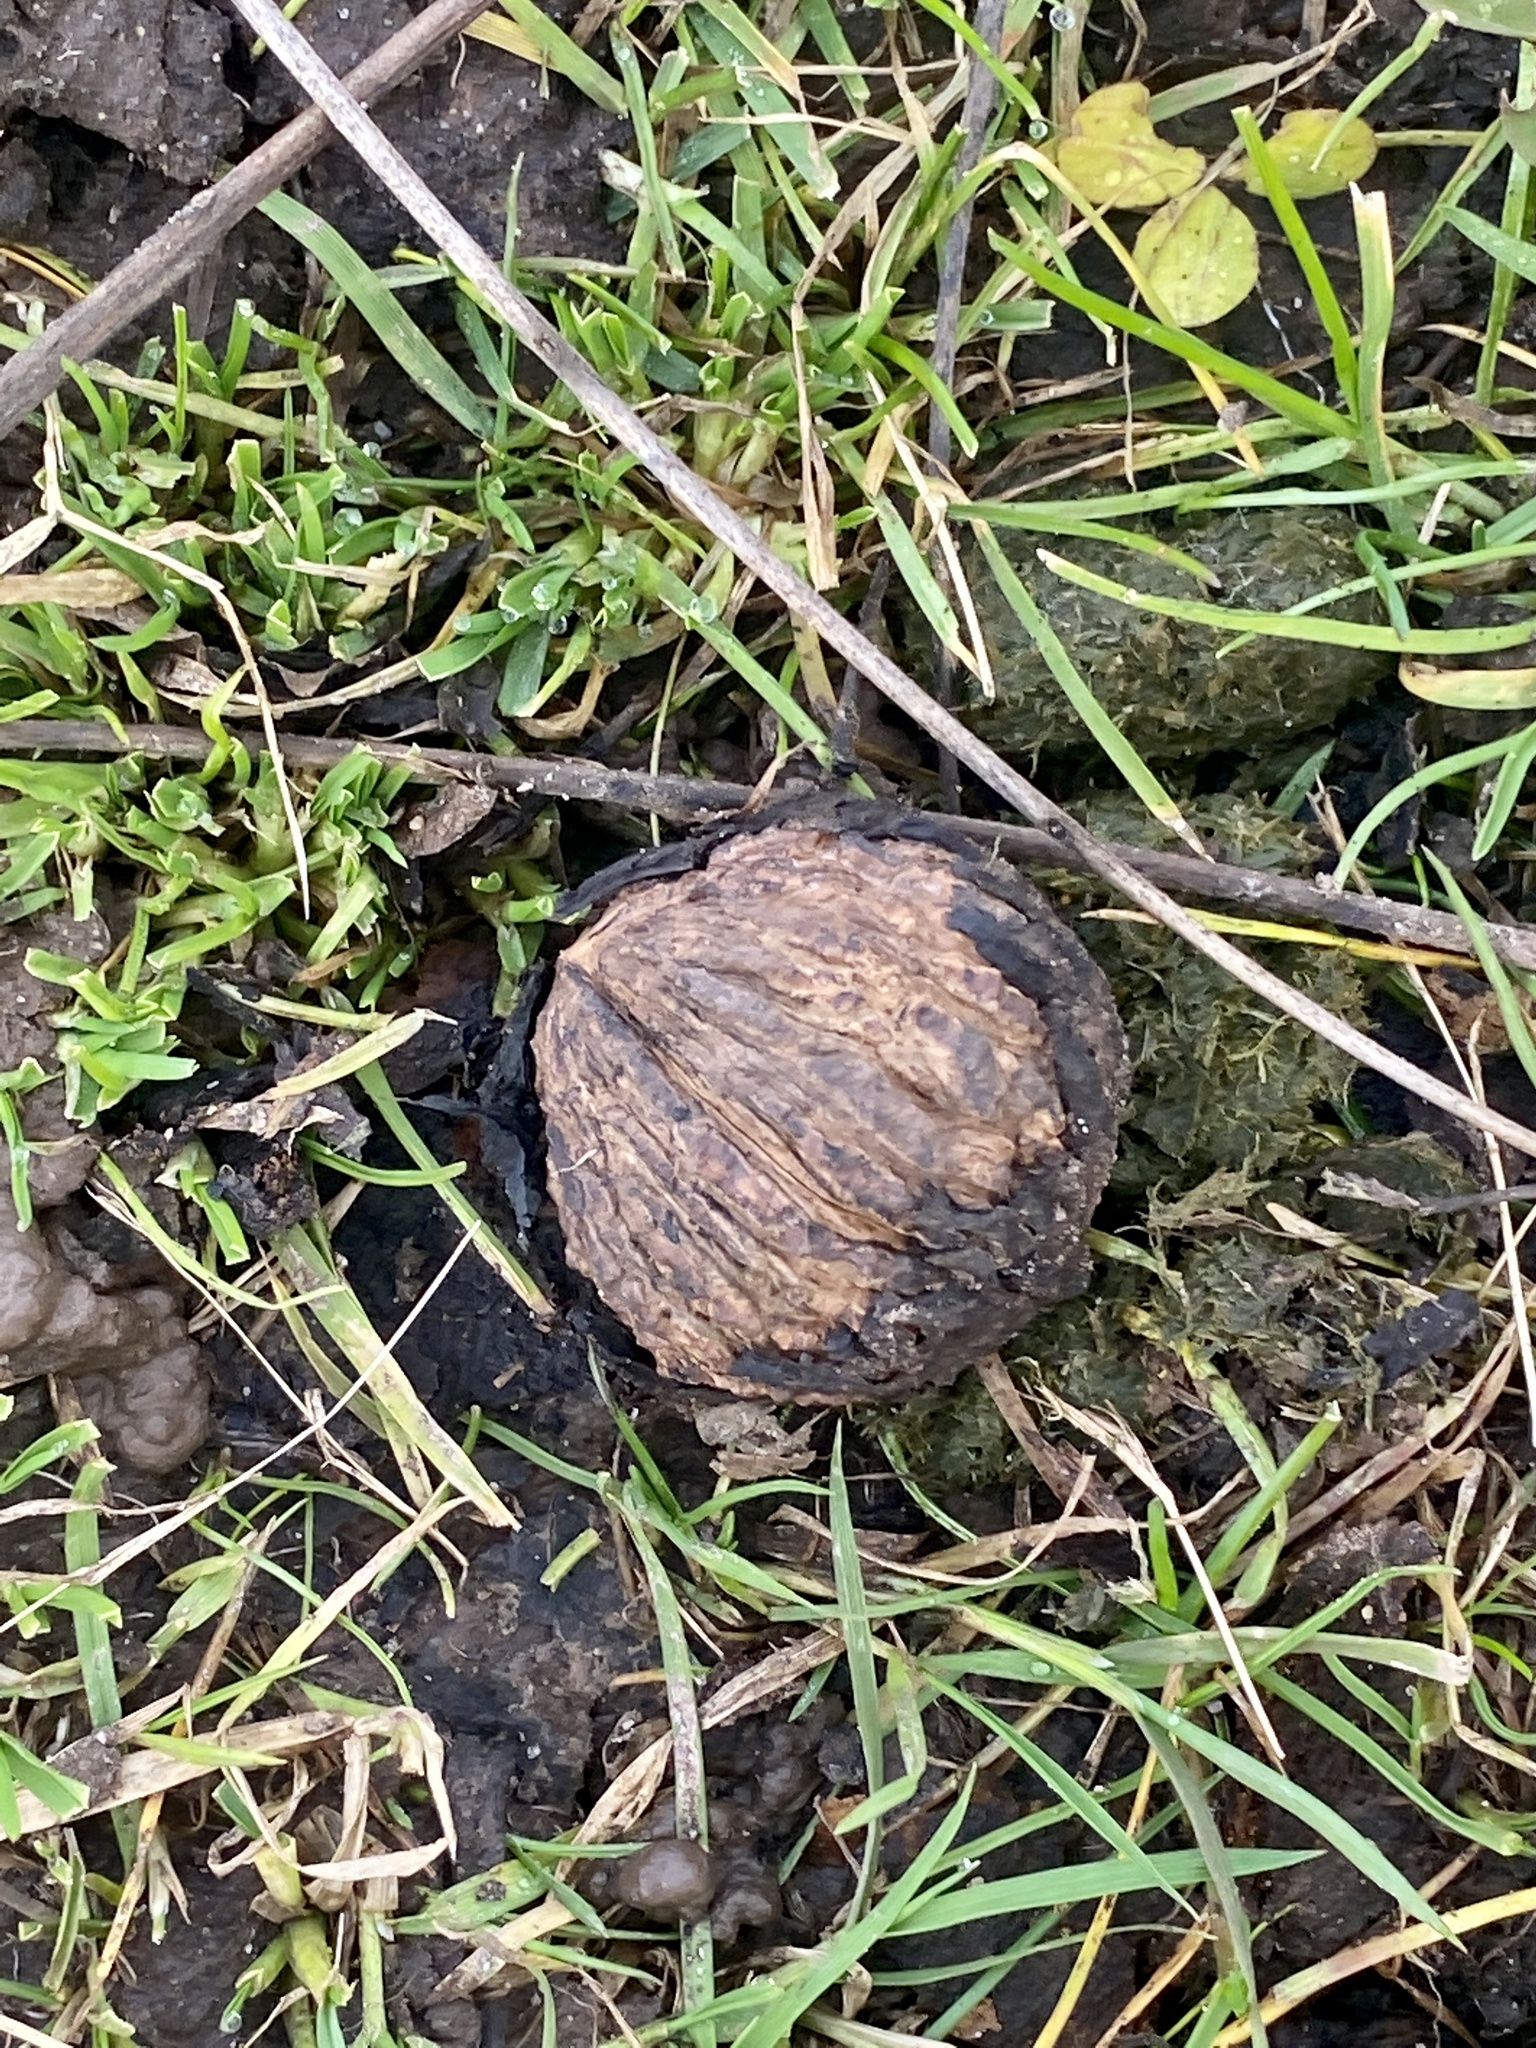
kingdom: Plantae
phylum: Tracheophyta
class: Magnoliopsida
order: Fagales
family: Juglandaceae
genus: Juglans
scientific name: Juglans nigra
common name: Black walnut
